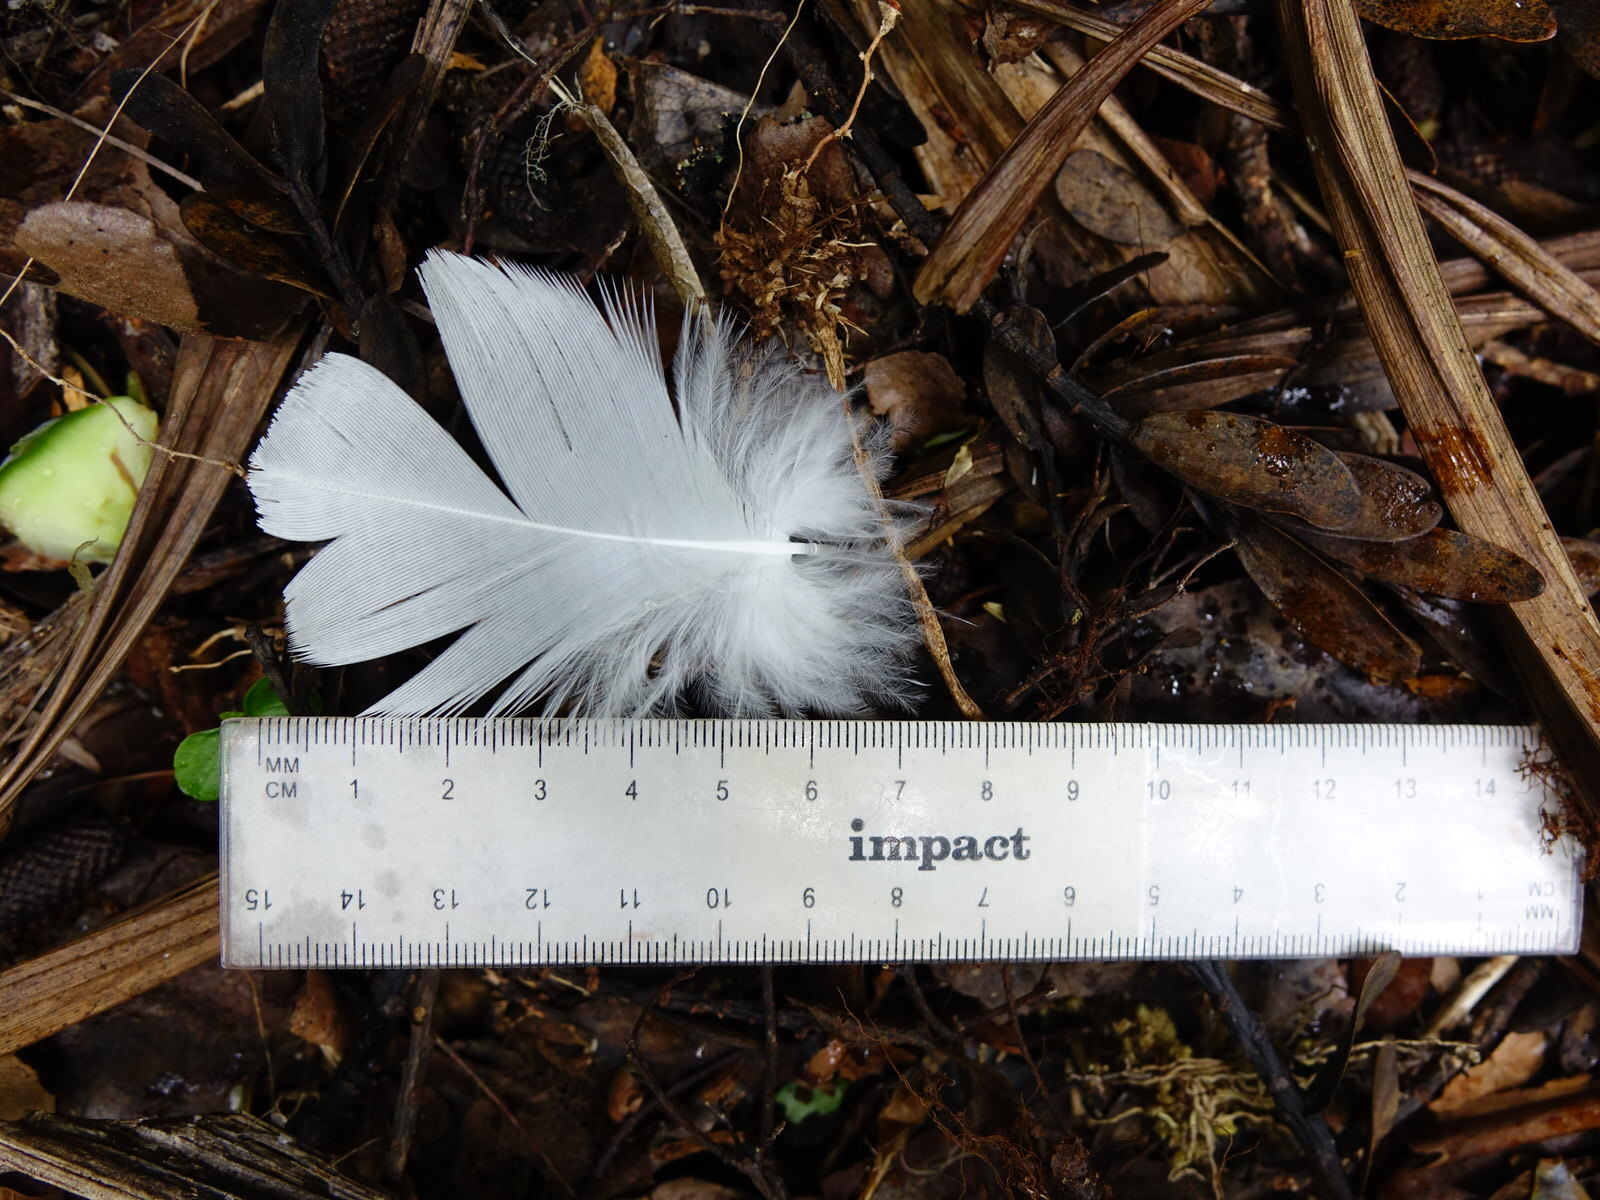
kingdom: Animalia
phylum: Chordata
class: Aves
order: Psittaciformes
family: Psittacidae
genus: Cacatua
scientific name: Cacatua galerita
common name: Sulphur-crested cockatoo
